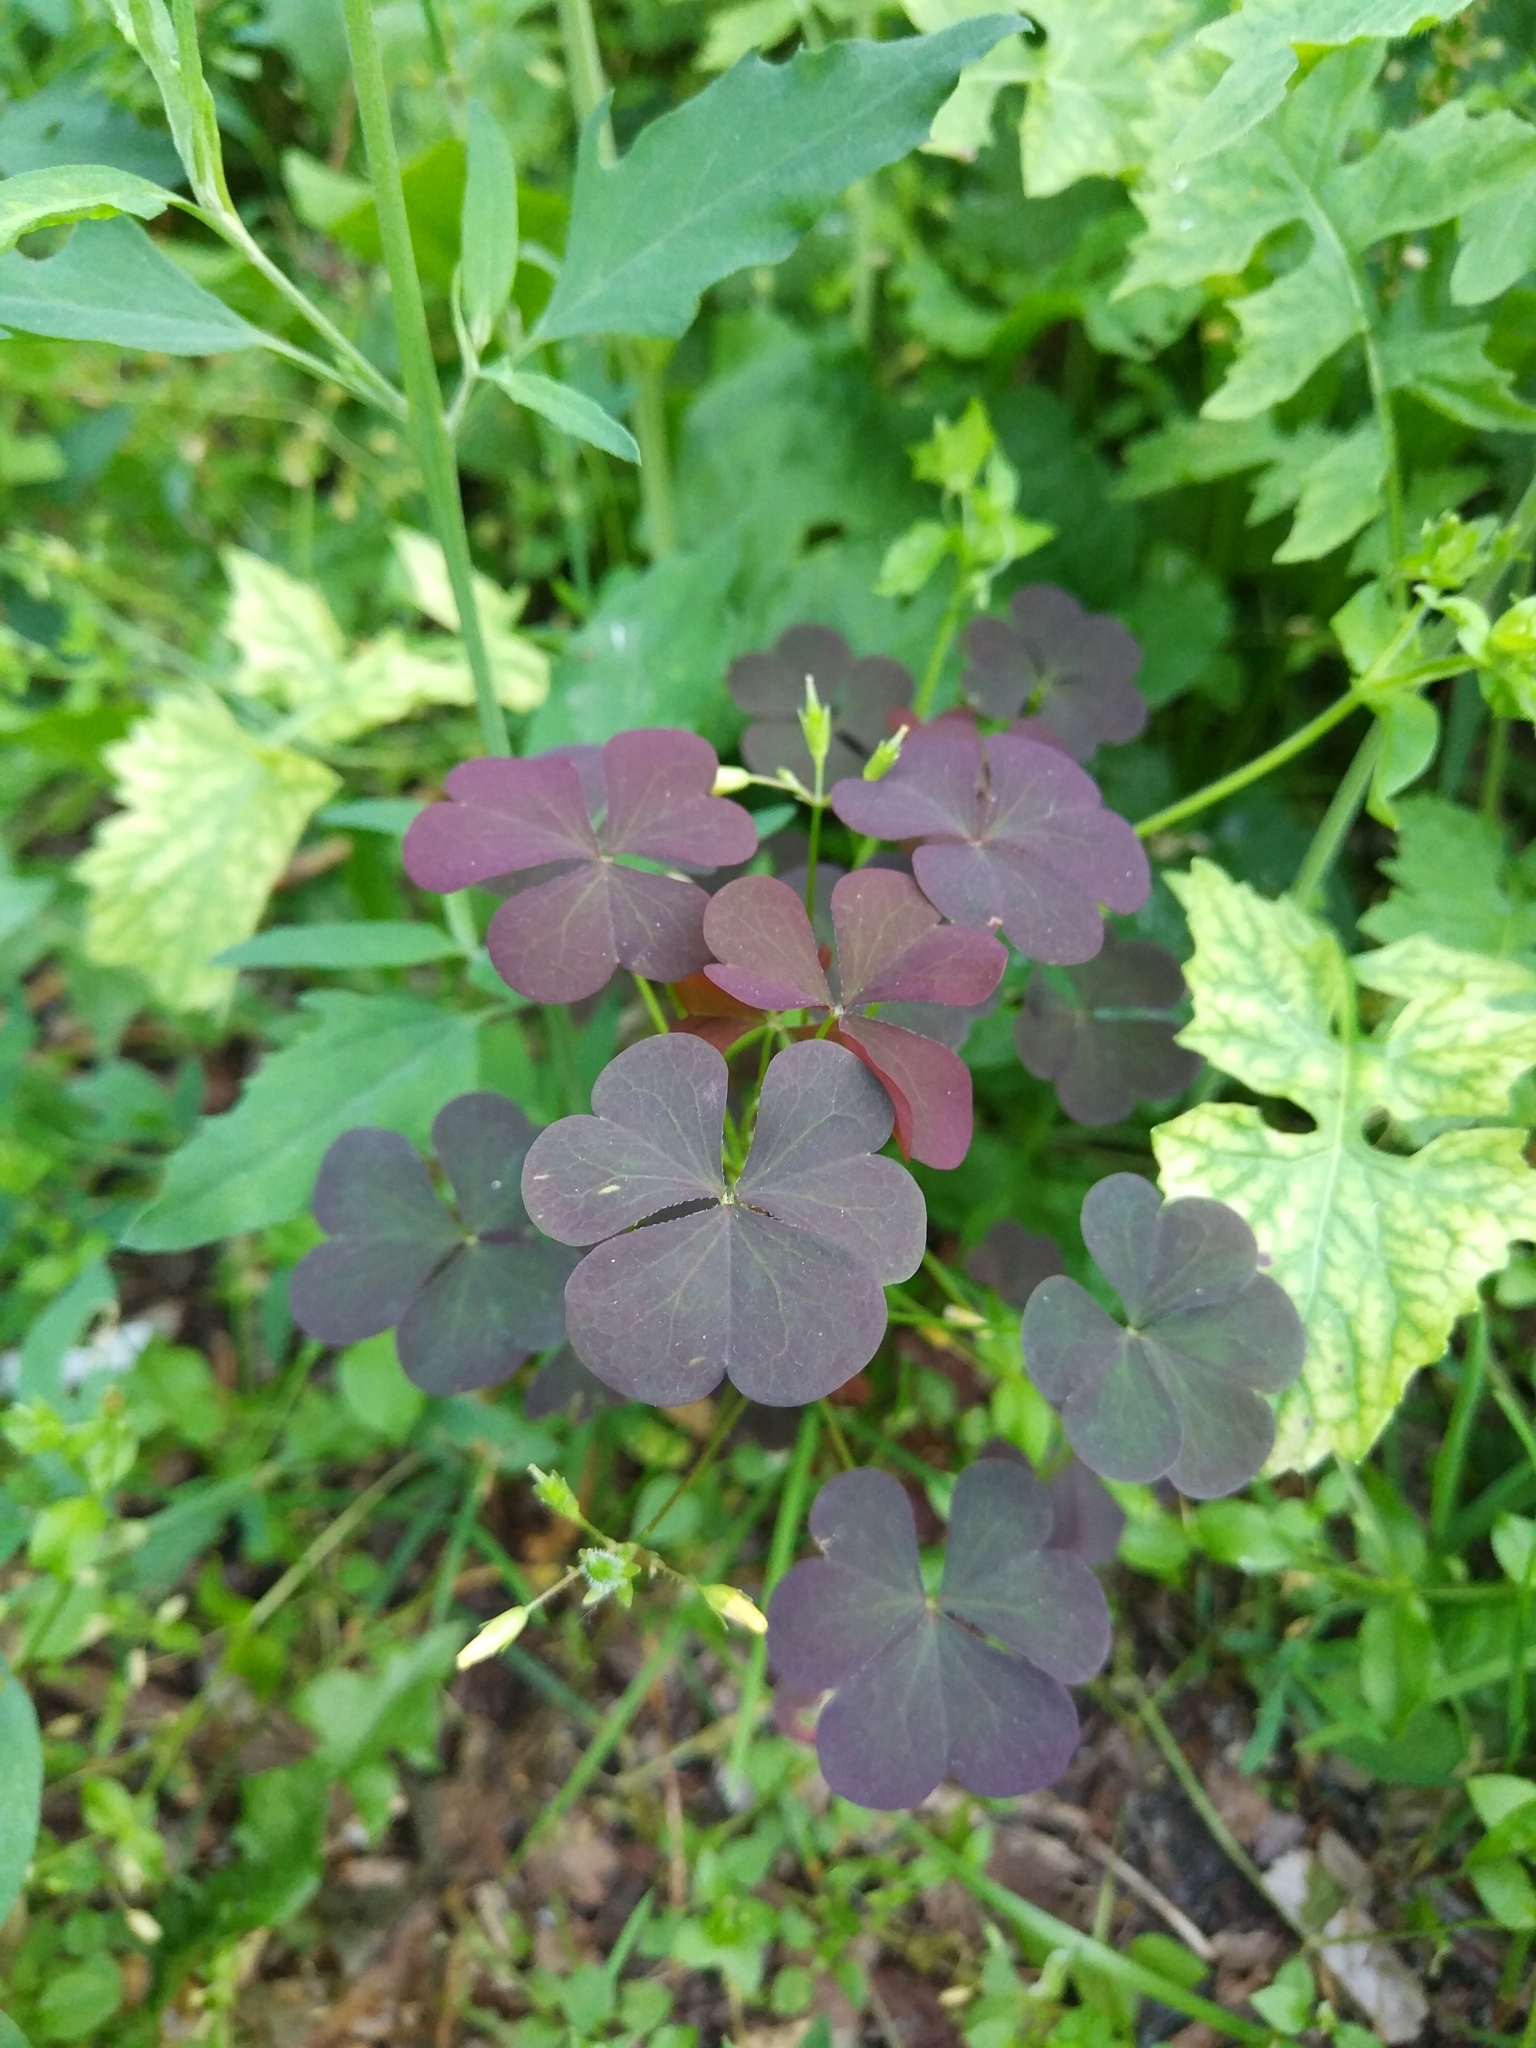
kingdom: Plantae
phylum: Tracheophyta
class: Magnoliopsida
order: Oxalidales
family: Oxalidaceae
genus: Oxalis
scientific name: Oxalis stricta
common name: Upright yellow-sorrel
